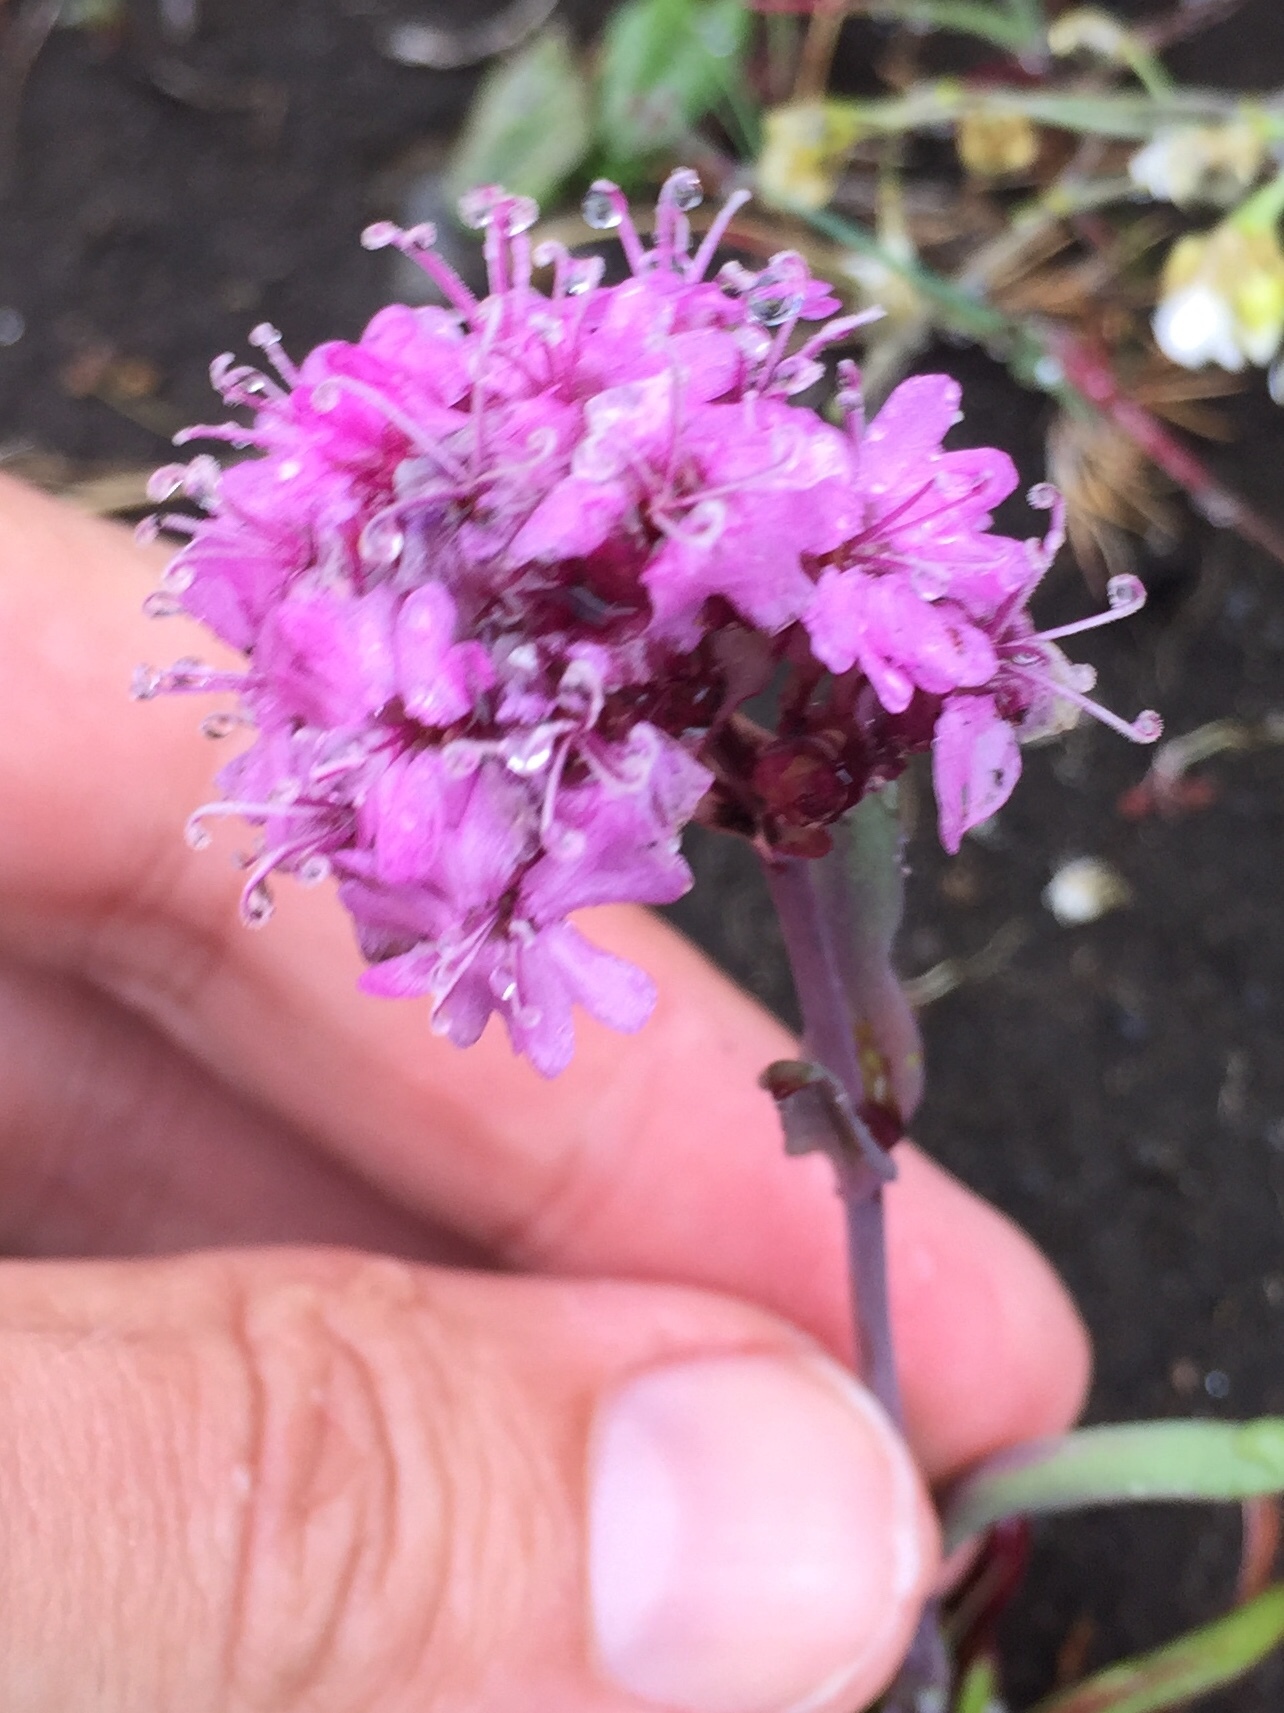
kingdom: Plantae
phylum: Tracheophyta
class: Magnoliopsida
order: Caryophyllales
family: Caryophyllaceae
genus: Viscaria
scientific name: Viscaria alpina
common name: Alpine campion
